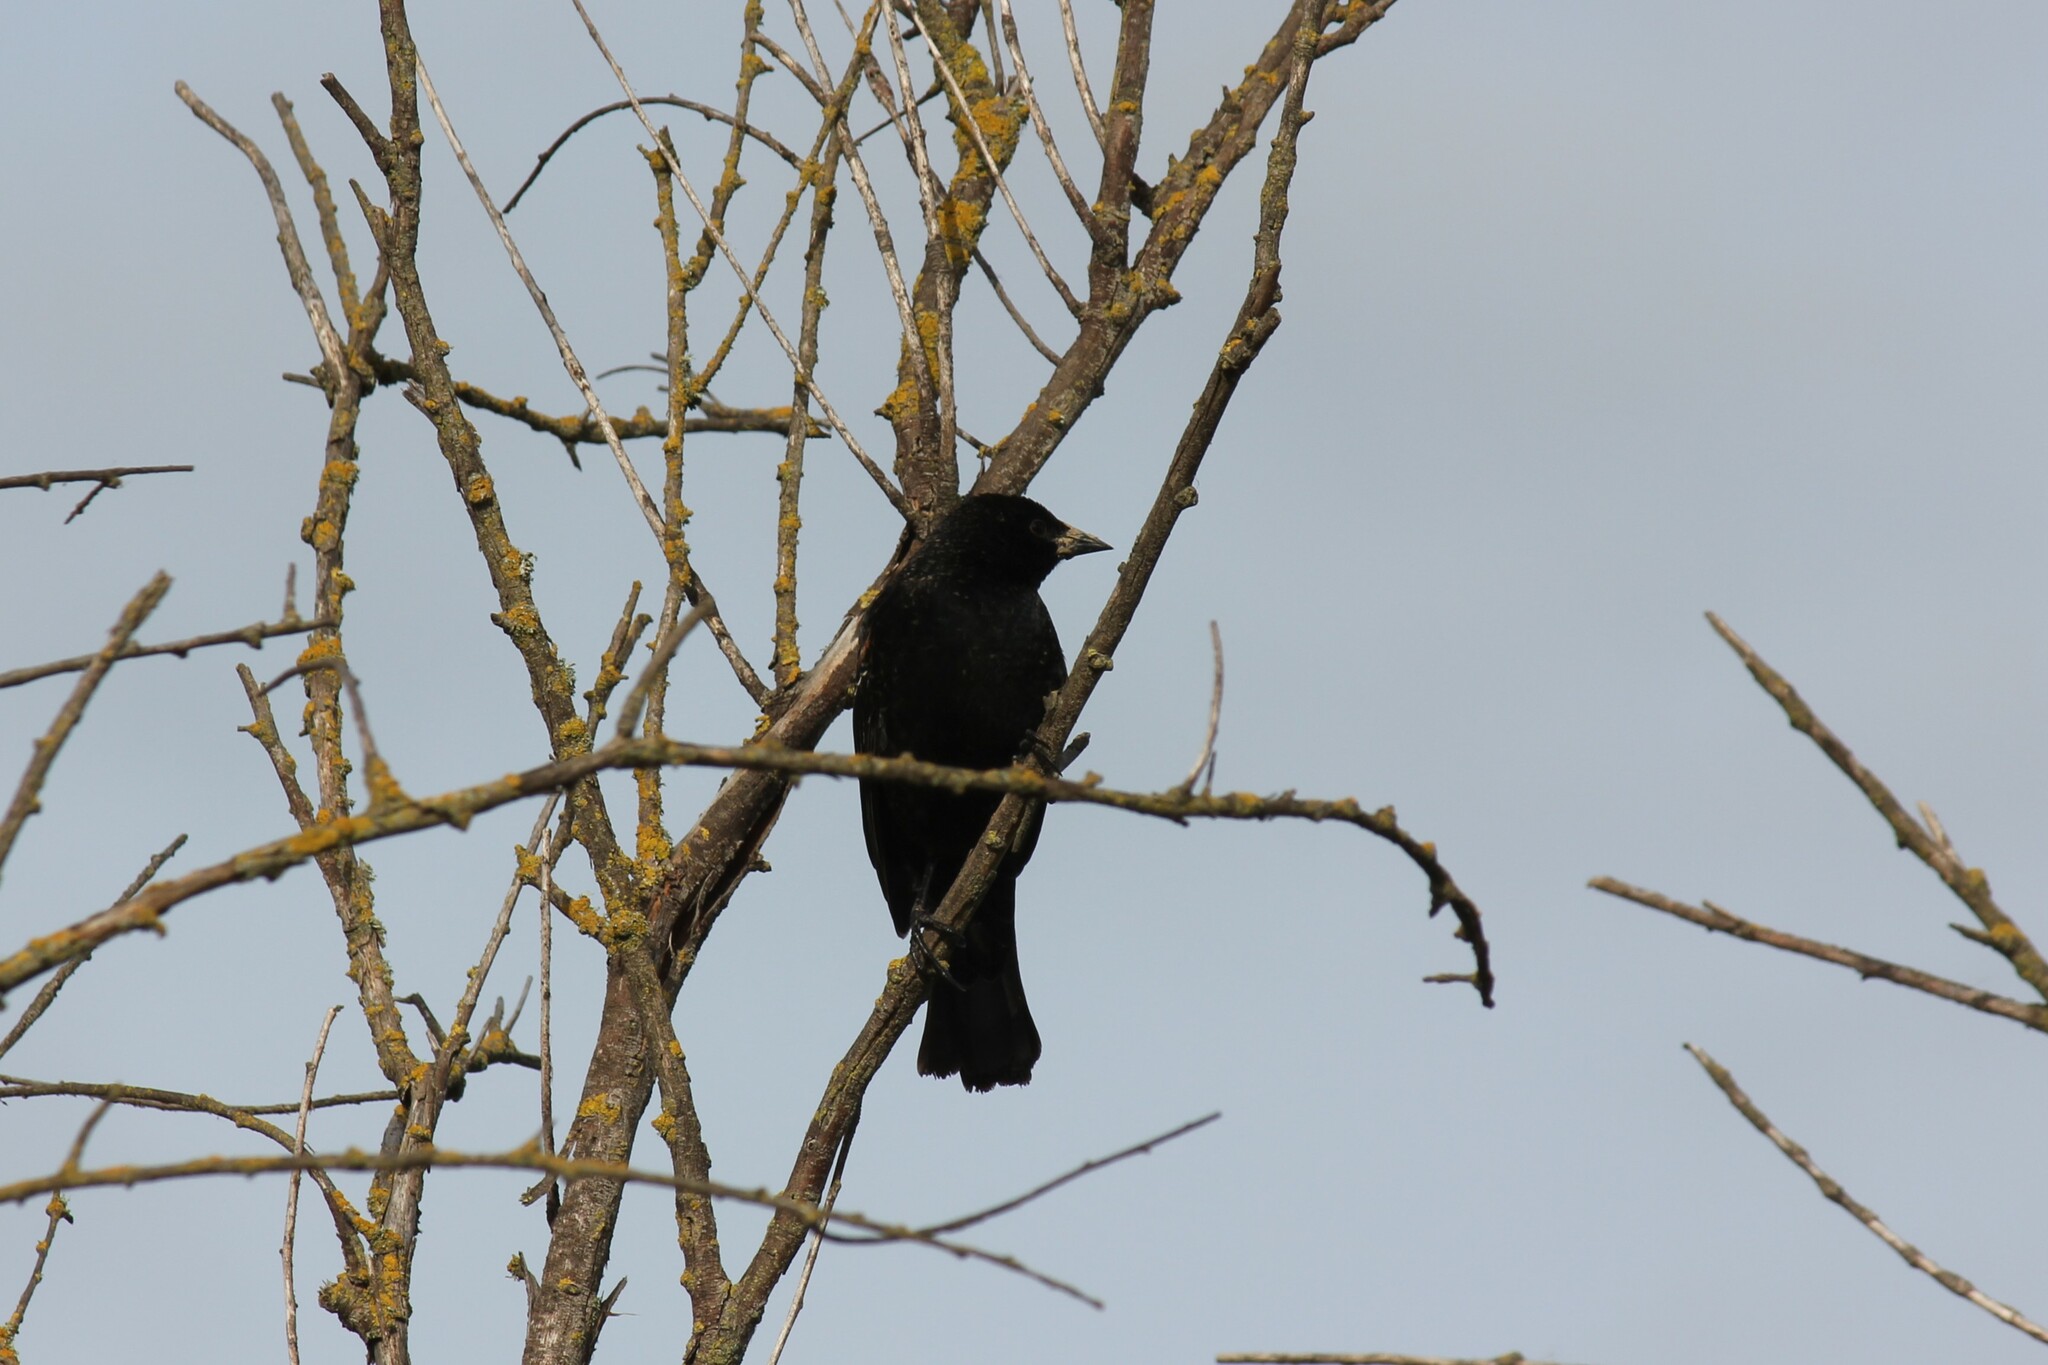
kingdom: Animalia
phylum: Chordata
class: Aves
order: Passeriformes
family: Icteridae
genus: Agelaius
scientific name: Agelaius phoeniceus
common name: Red-winged blackbird
